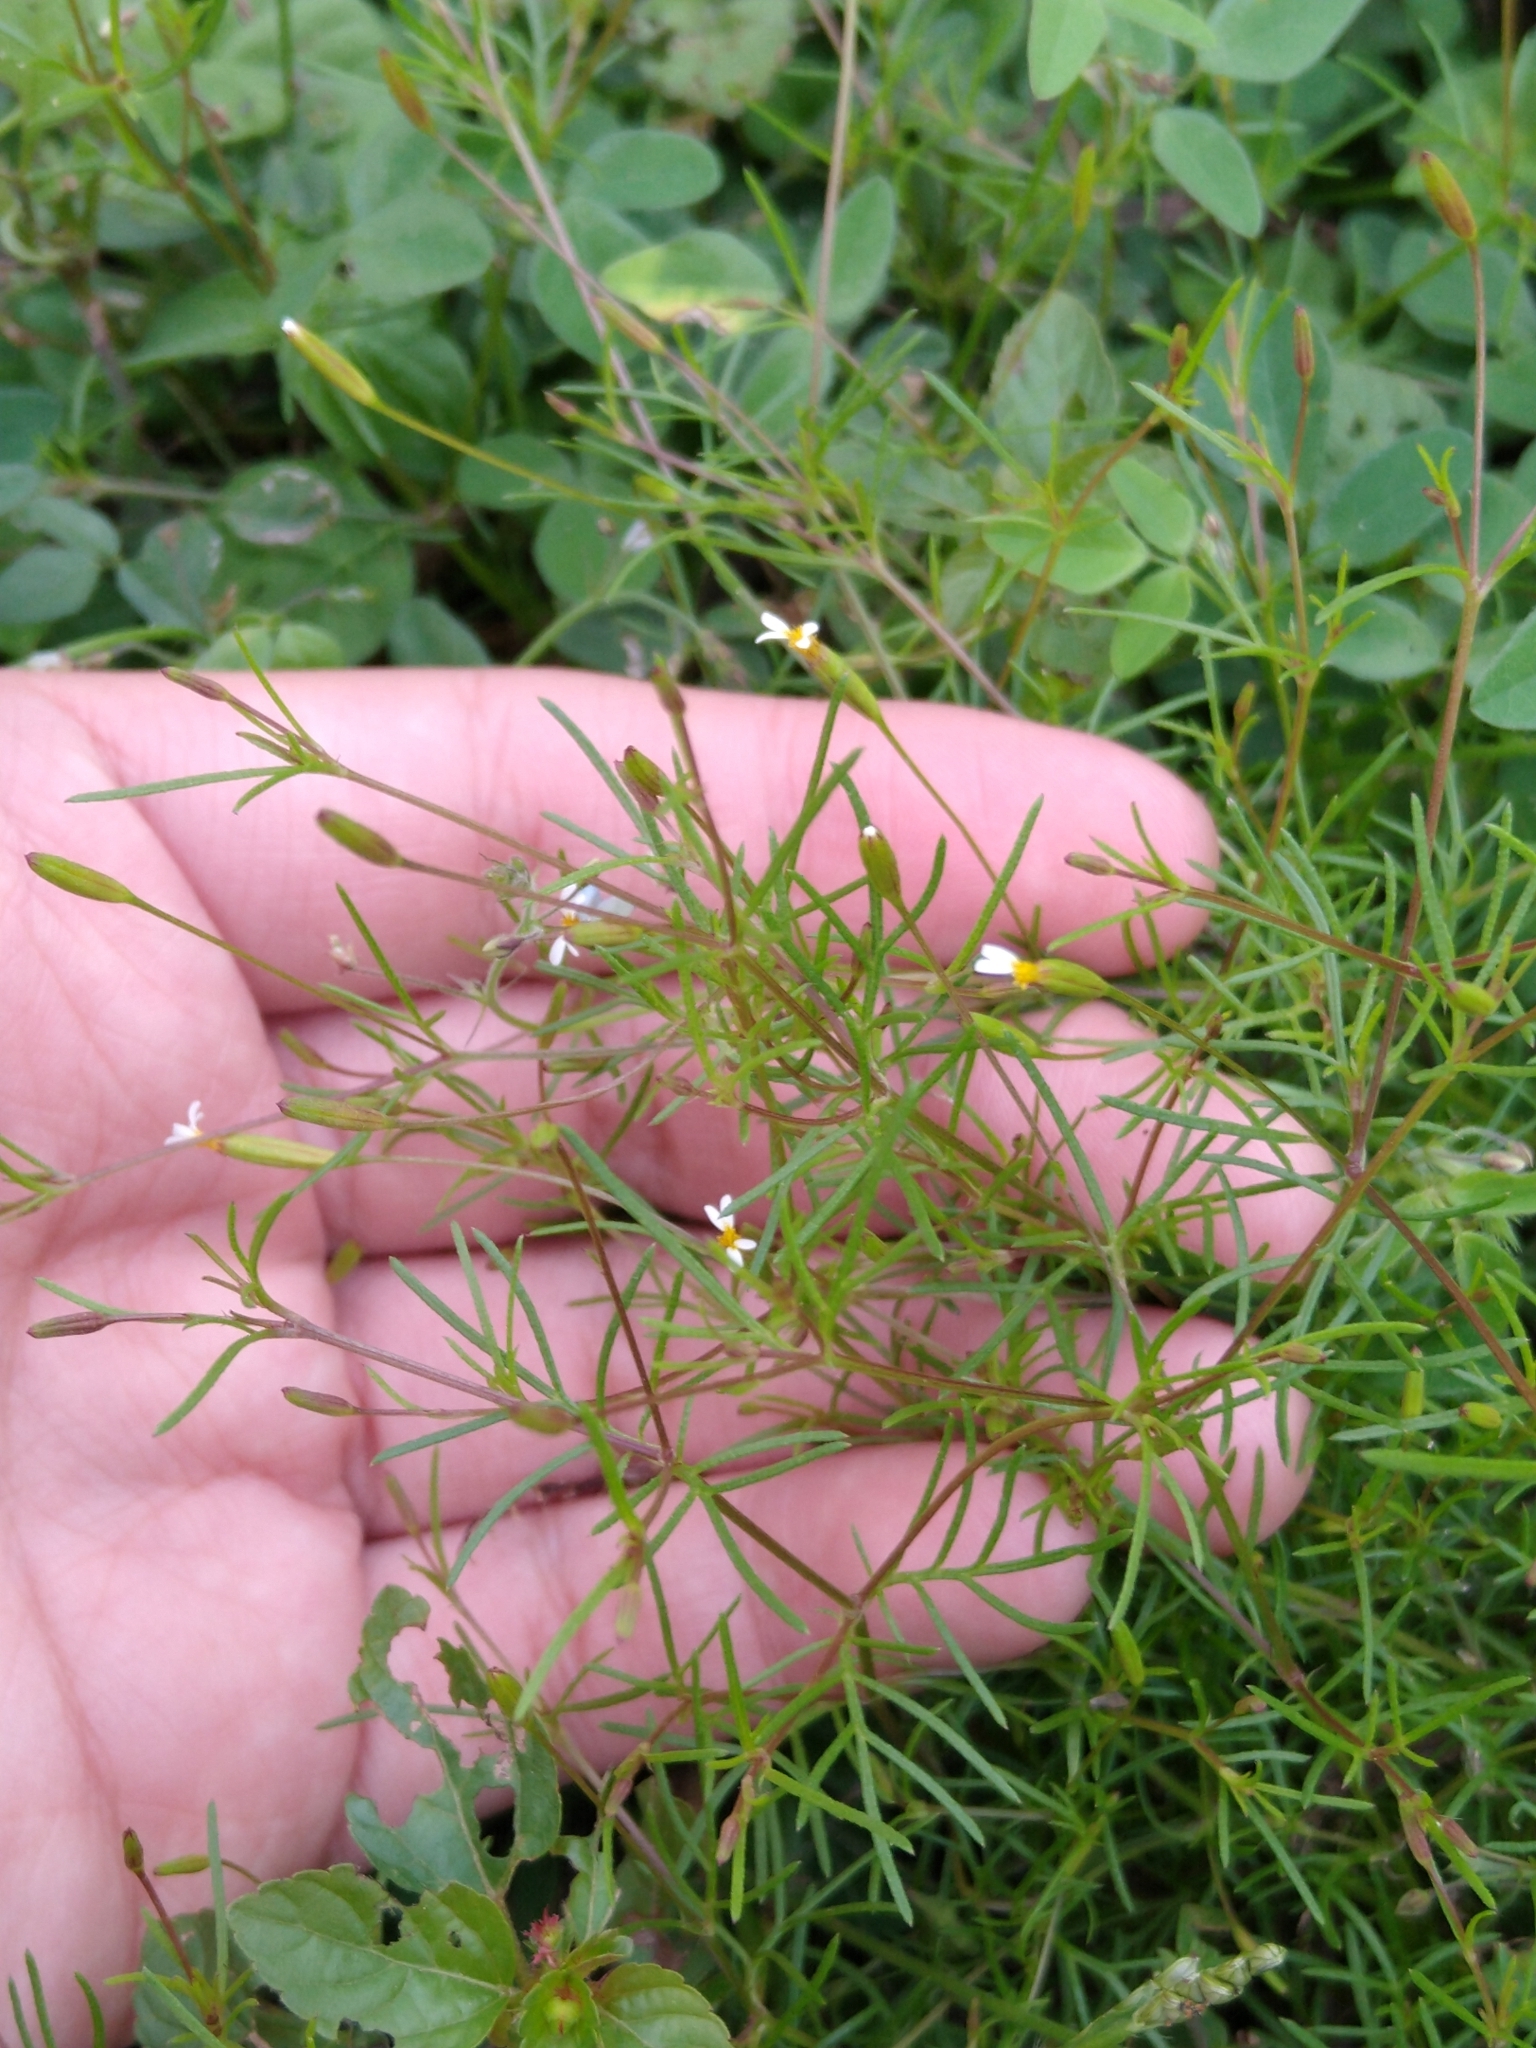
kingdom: Plantae
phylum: Tracheophyta
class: Magnoliopsida
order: Asterales
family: Asteraceae
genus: Tagetes
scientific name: Tagetes micrantha
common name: Licorice marigold
